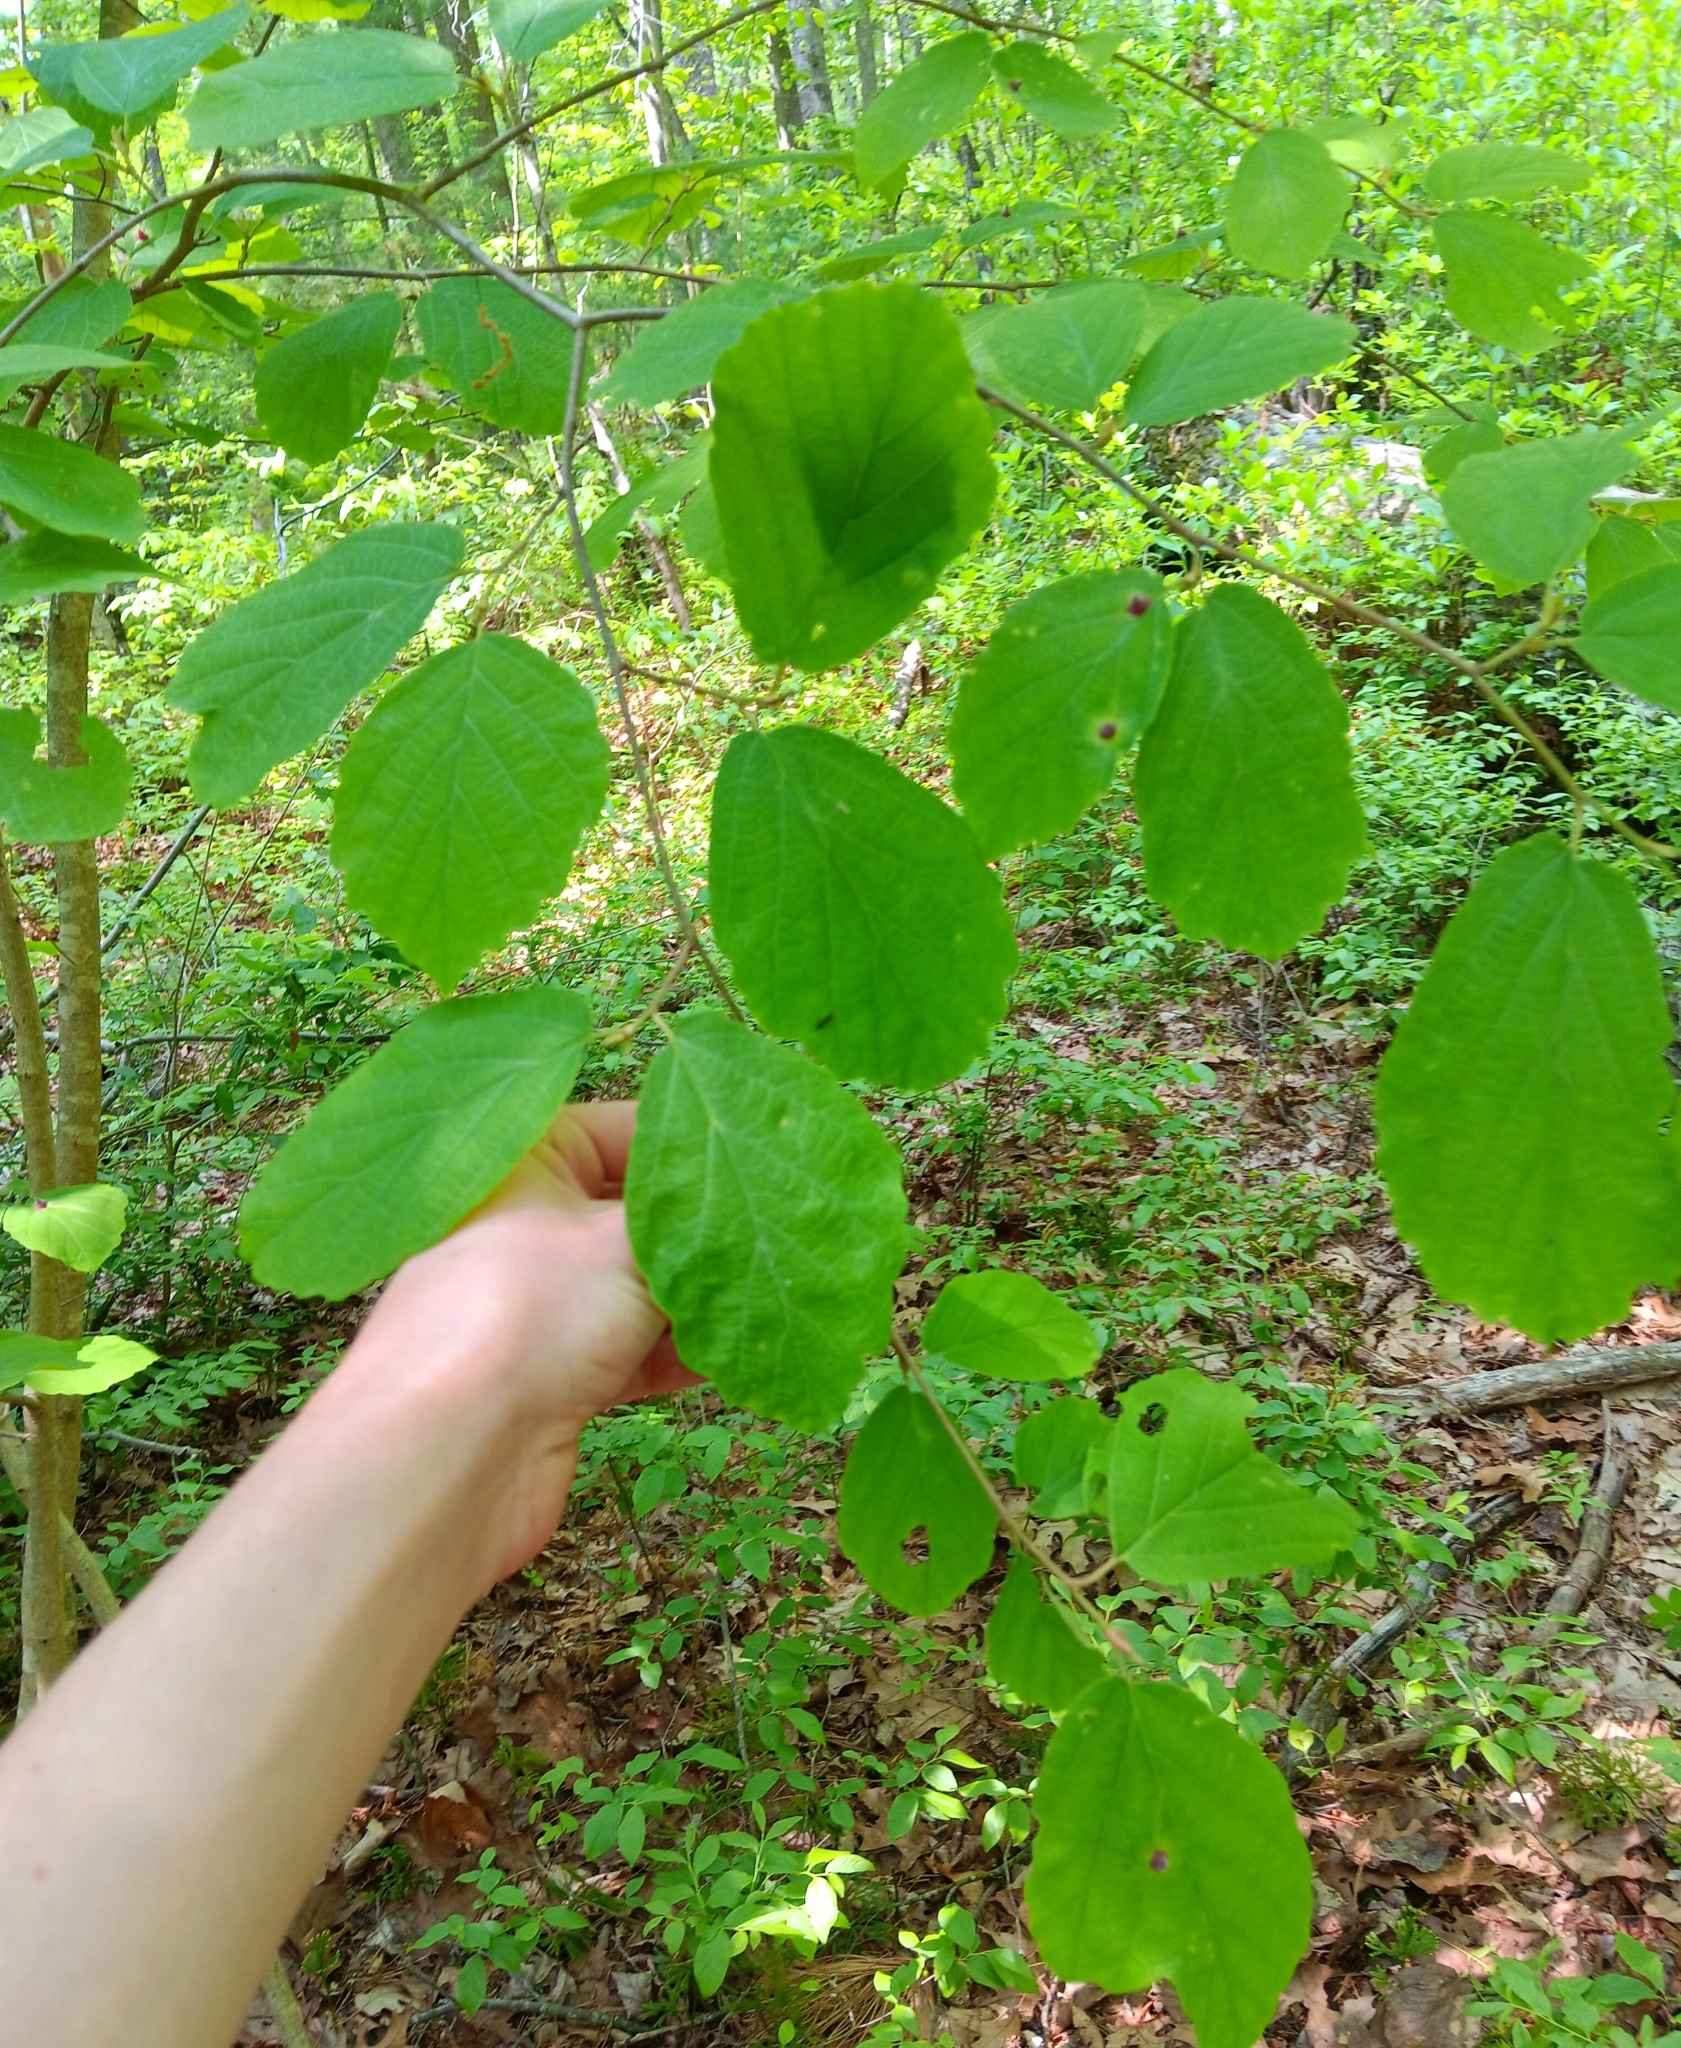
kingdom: Animalia
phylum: Arthropoda
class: Insecta
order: Hemiptera
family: Aphididae
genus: Hormaphis
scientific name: Hormaphis hamamelidis
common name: Witch-hazel cone gall aphid
